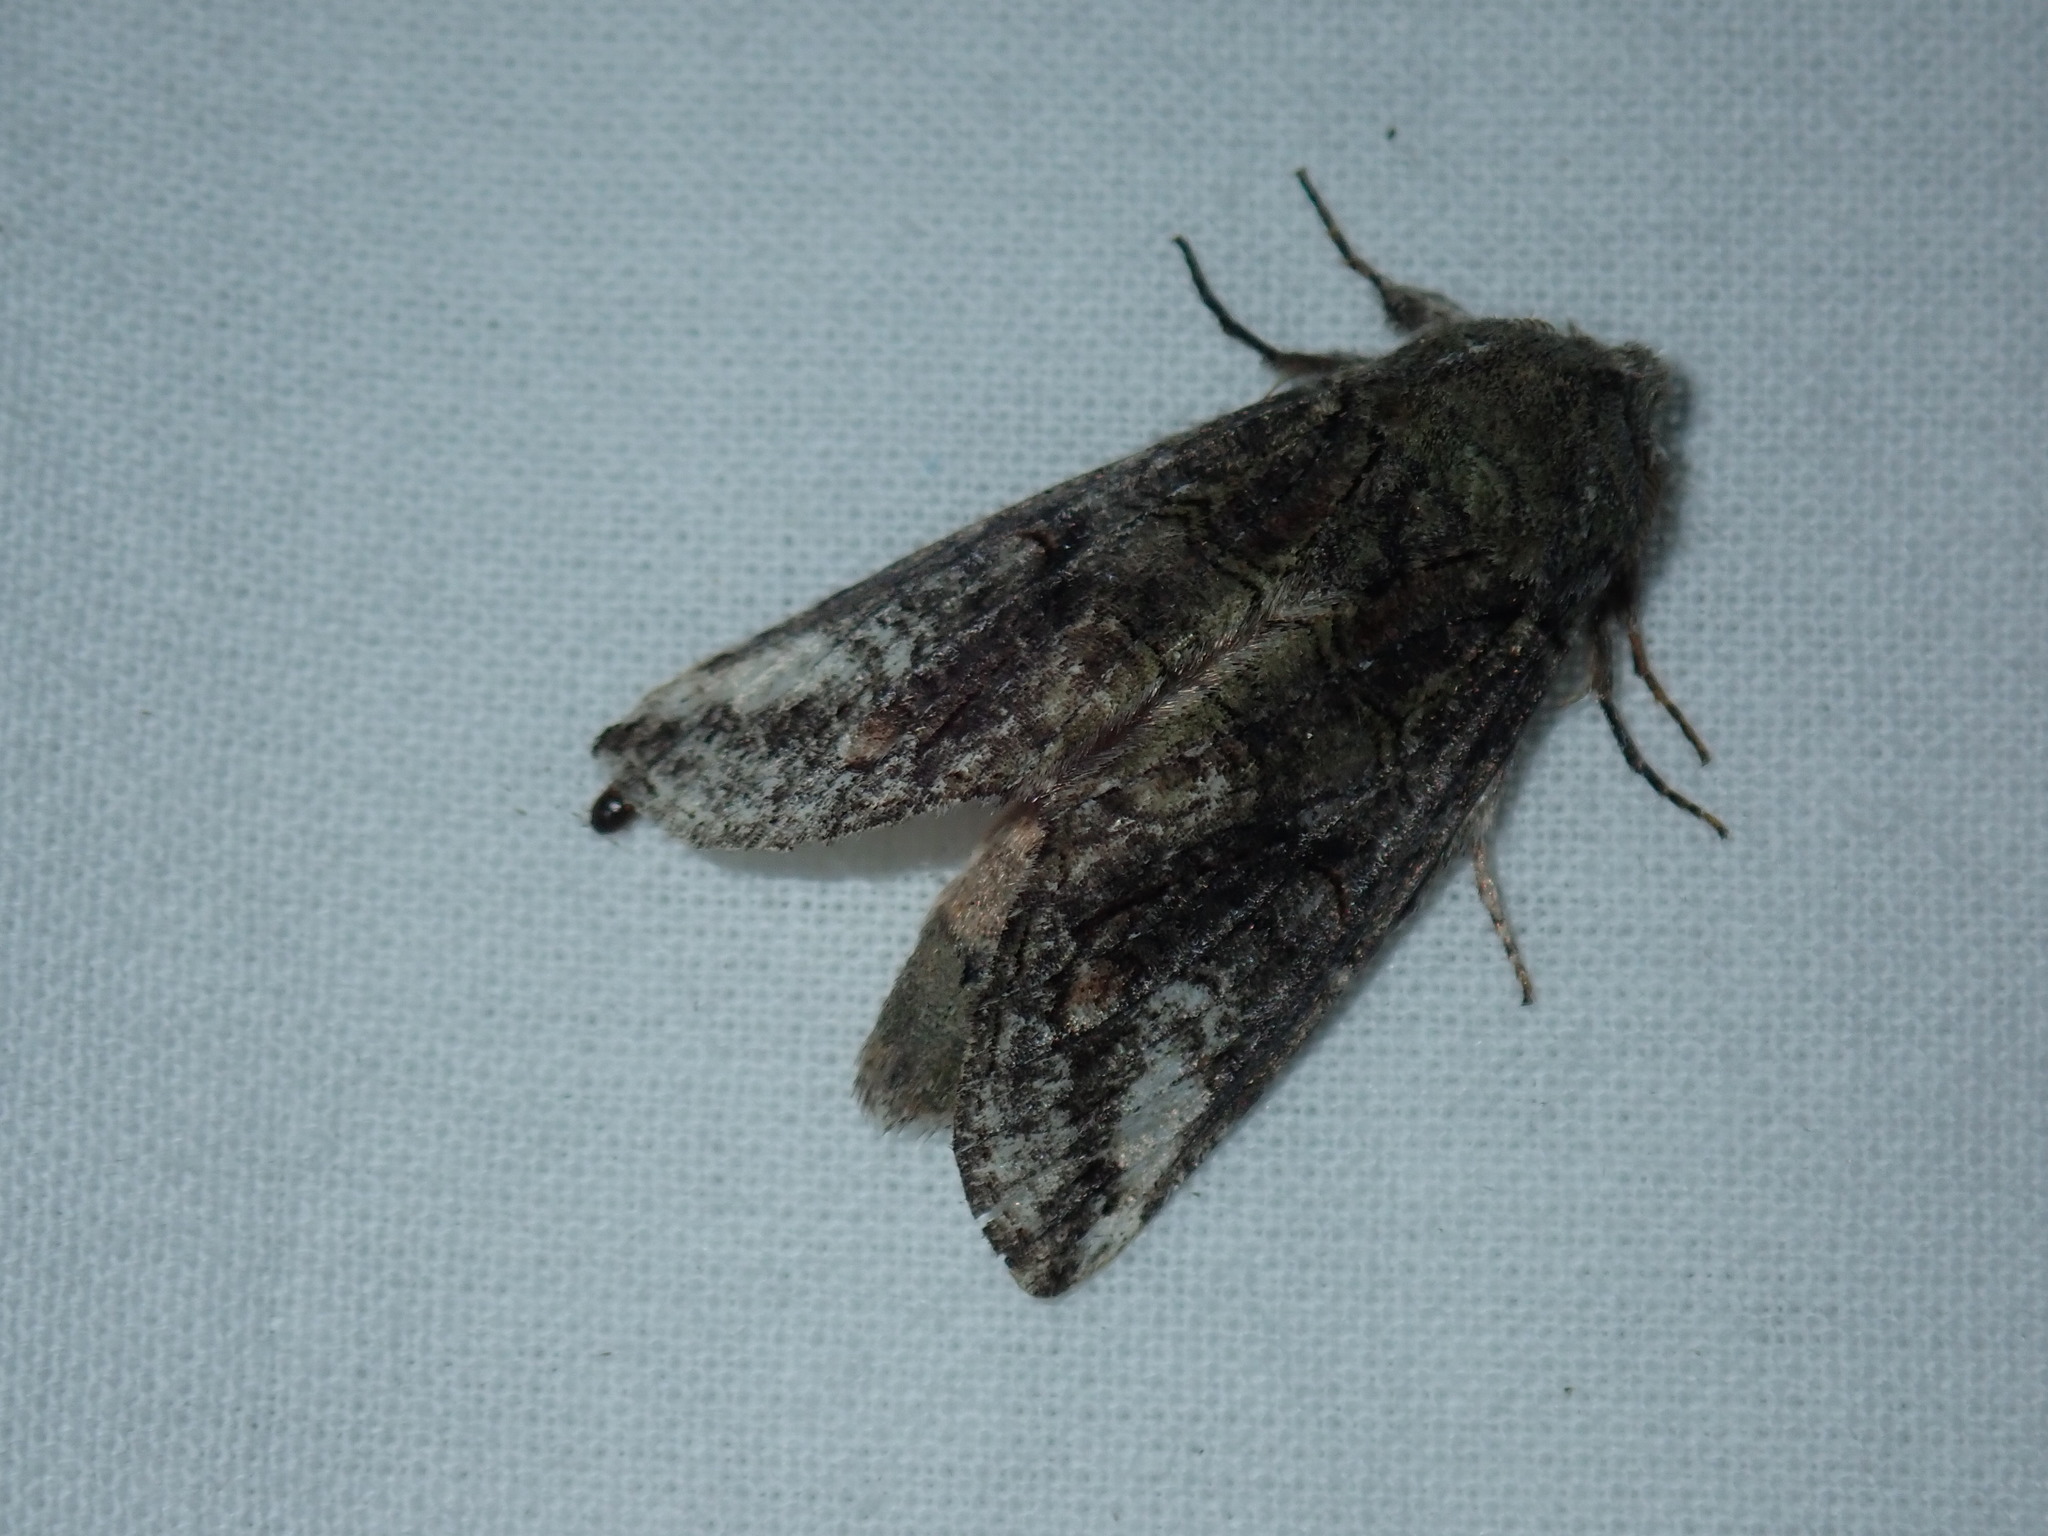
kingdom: Animalia
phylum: Arthropoda
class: Insecta
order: Lepidoptera
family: Notodontidae
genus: Heterocampa
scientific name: Heterocampa obliqua
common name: Oblique heterocampa
